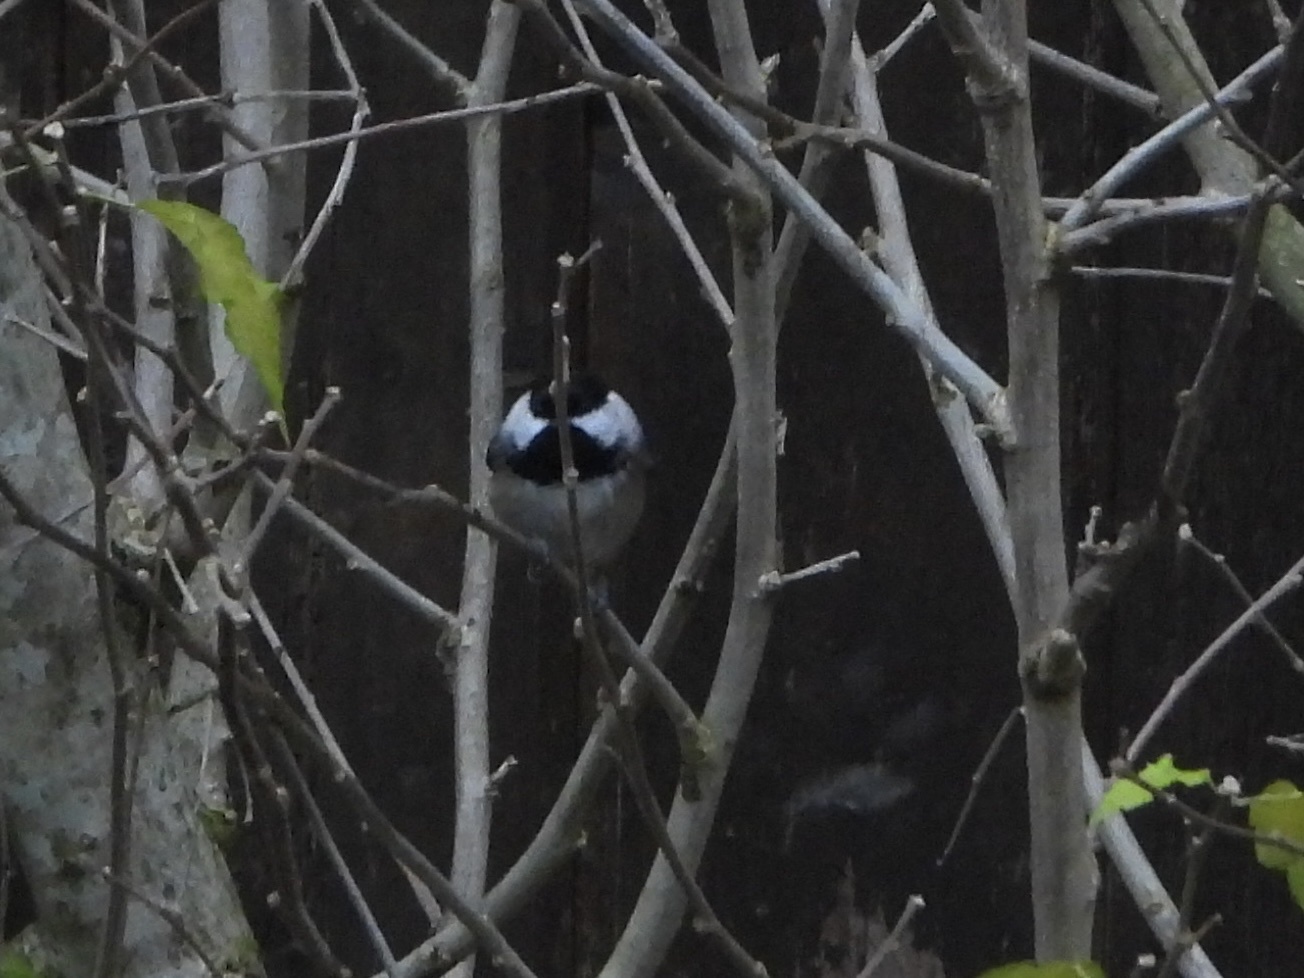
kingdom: Animalia
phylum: Chordata
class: Aves
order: Passeriformes
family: Paridae
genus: Poecile
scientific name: Poecile atricapillus
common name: Black-capped chickadee
